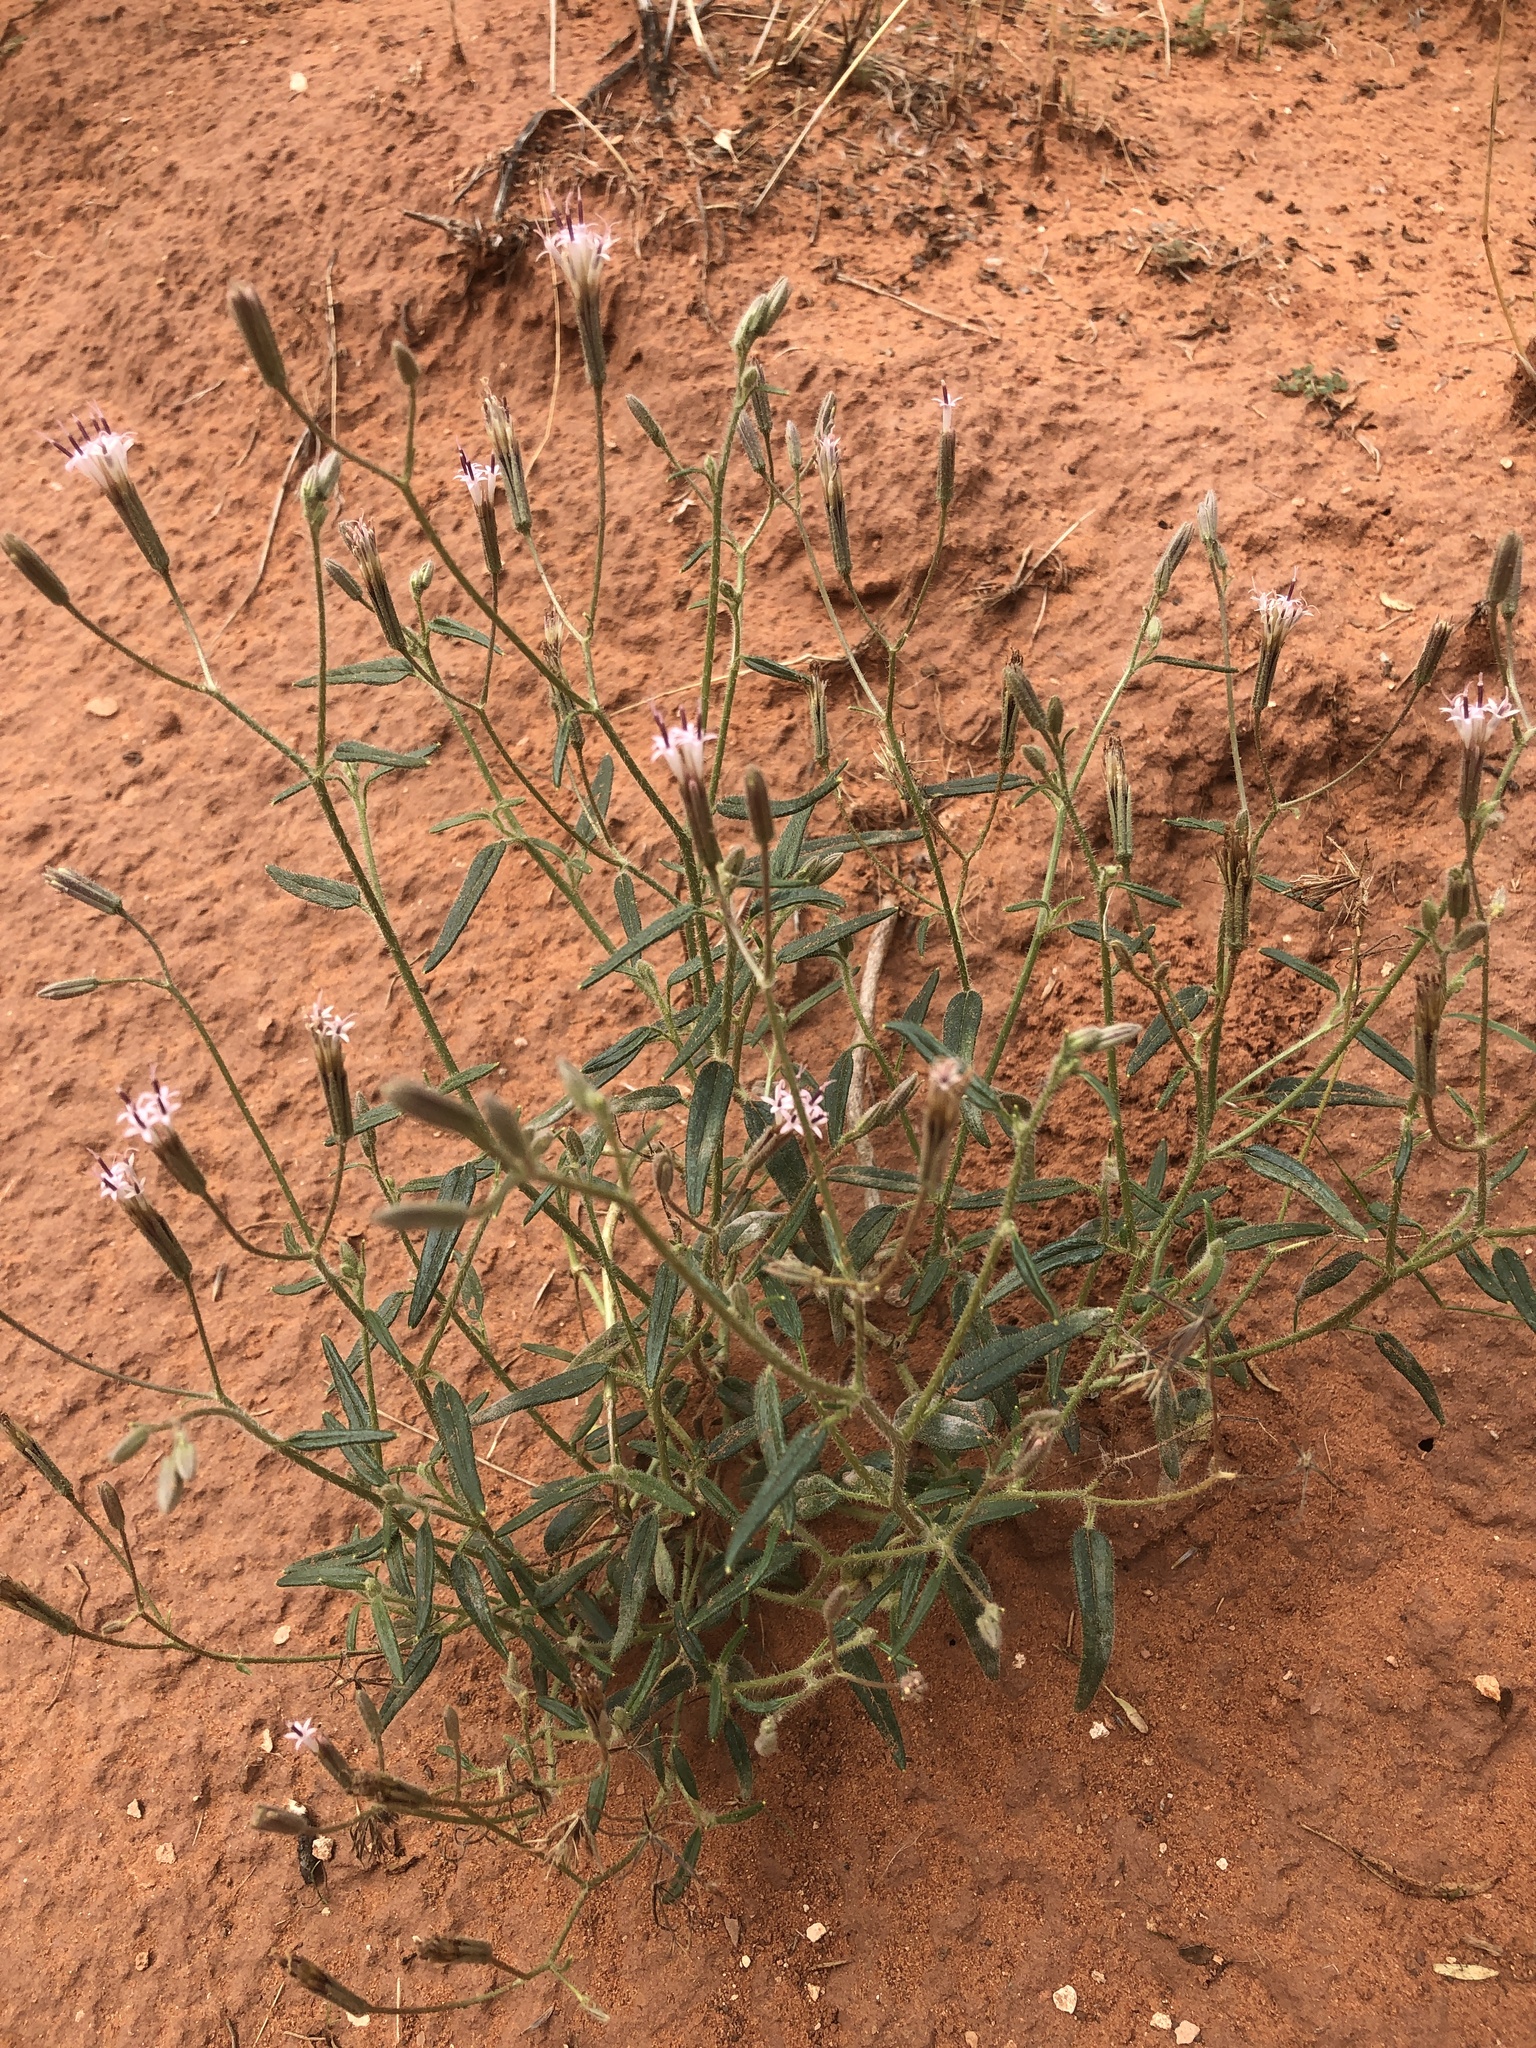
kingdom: Plantae
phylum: Tracheophyta
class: Magnoliopsida
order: Asterales
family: Asteraceae
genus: Palafoxia
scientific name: Palafoxia arida
